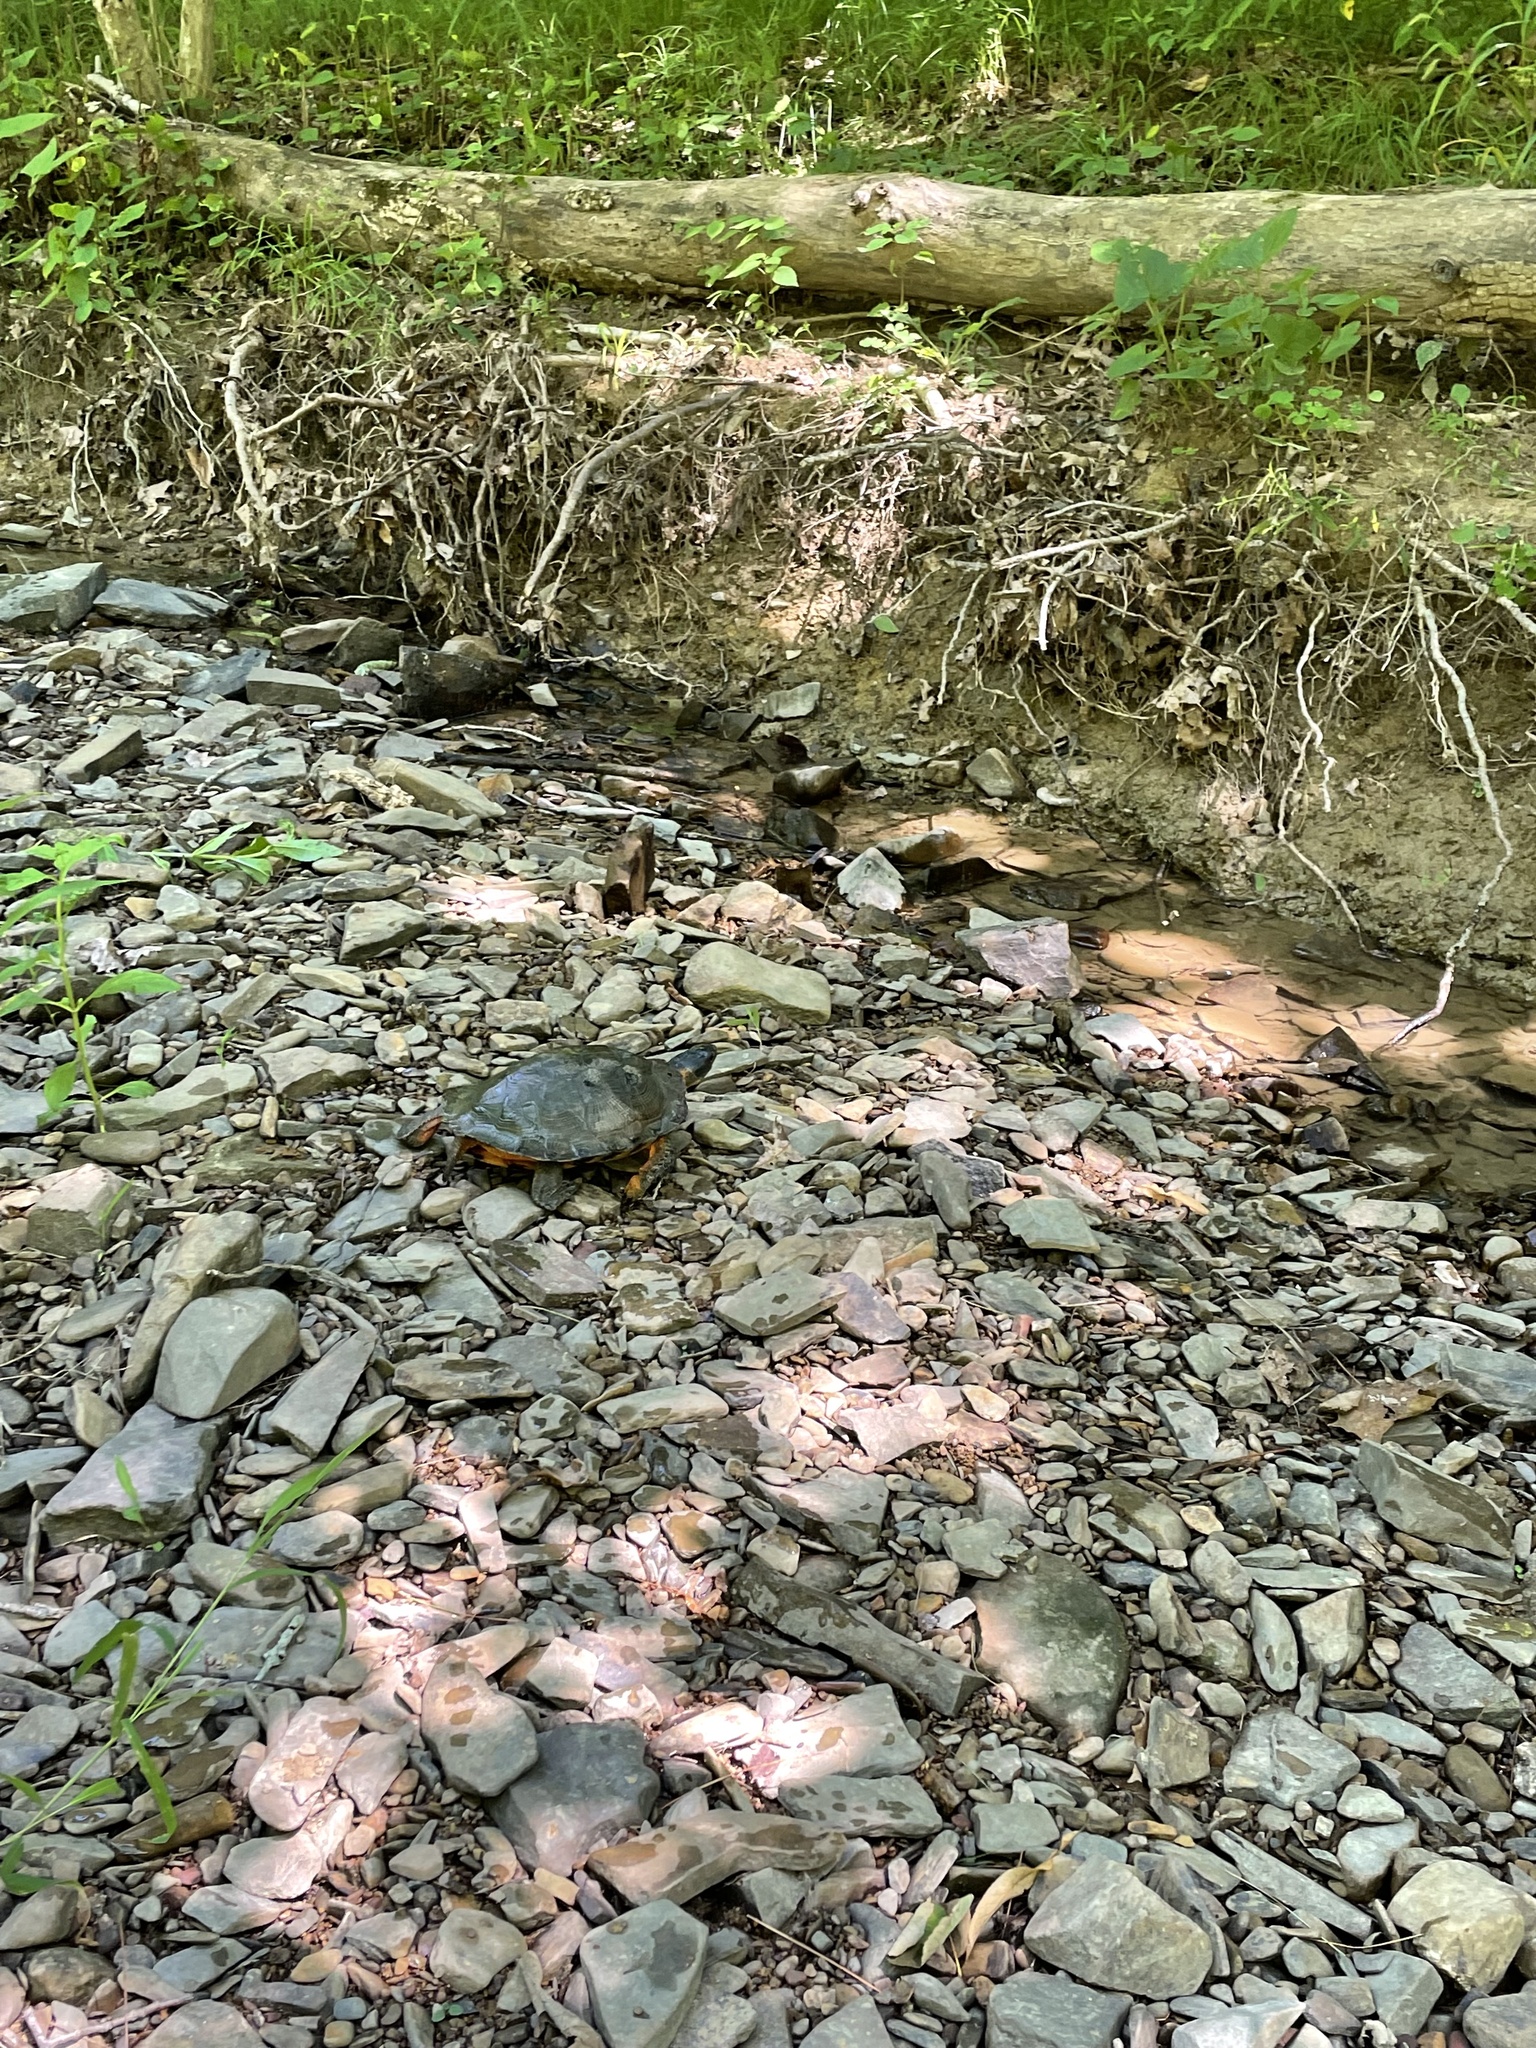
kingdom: Animalia
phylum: Chordata
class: Testudines
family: Emydidae
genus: Glyptemys
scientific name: Glyptemys insculpta
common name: Wood turtle
